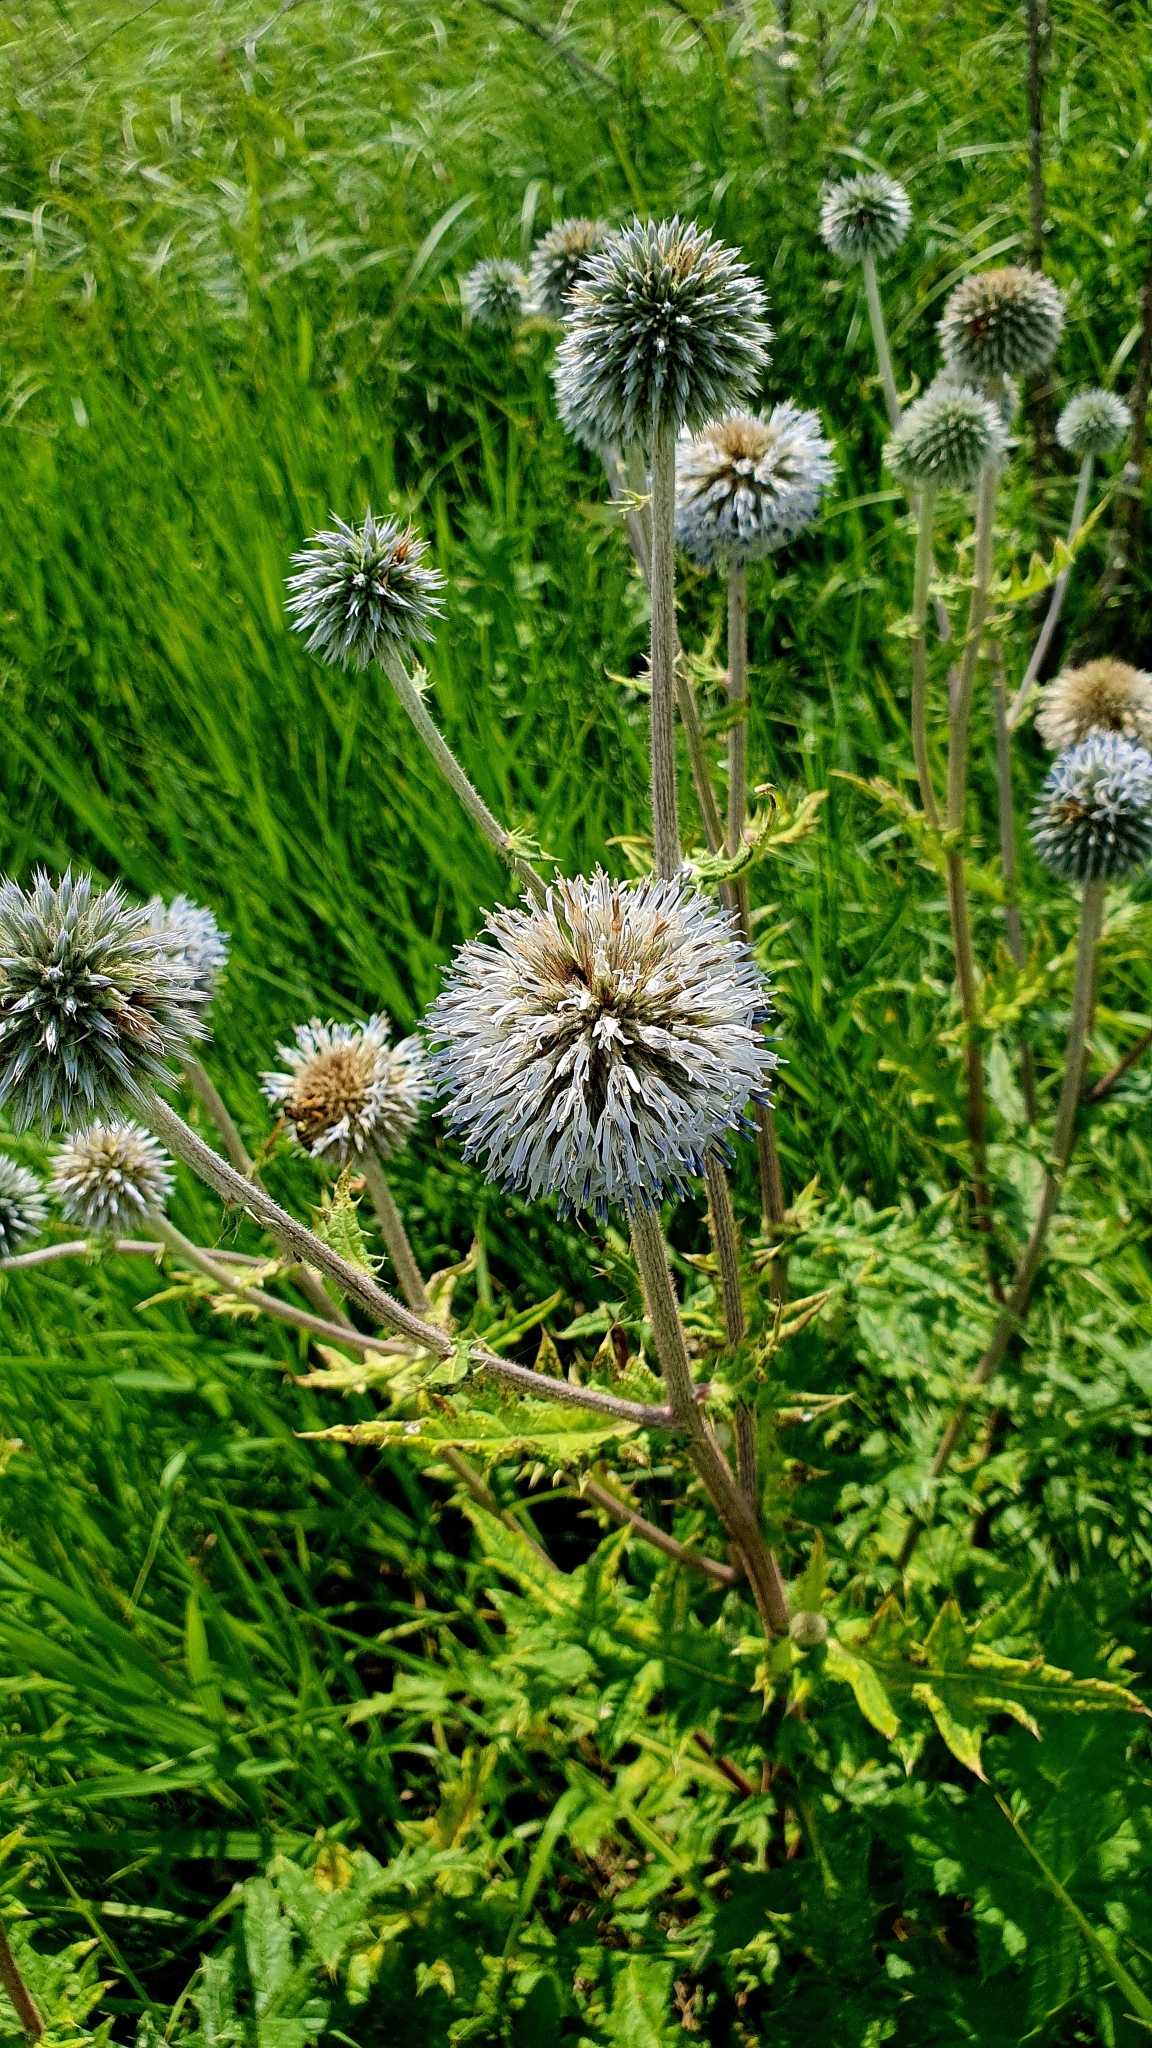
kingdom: Plantae
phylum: Tracheophyta
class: Magnoliopsida
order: Asterales
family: Asteraceae
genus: Echinops
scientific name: Echinops sphaerocephalus
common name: Glandular globe-thistle
